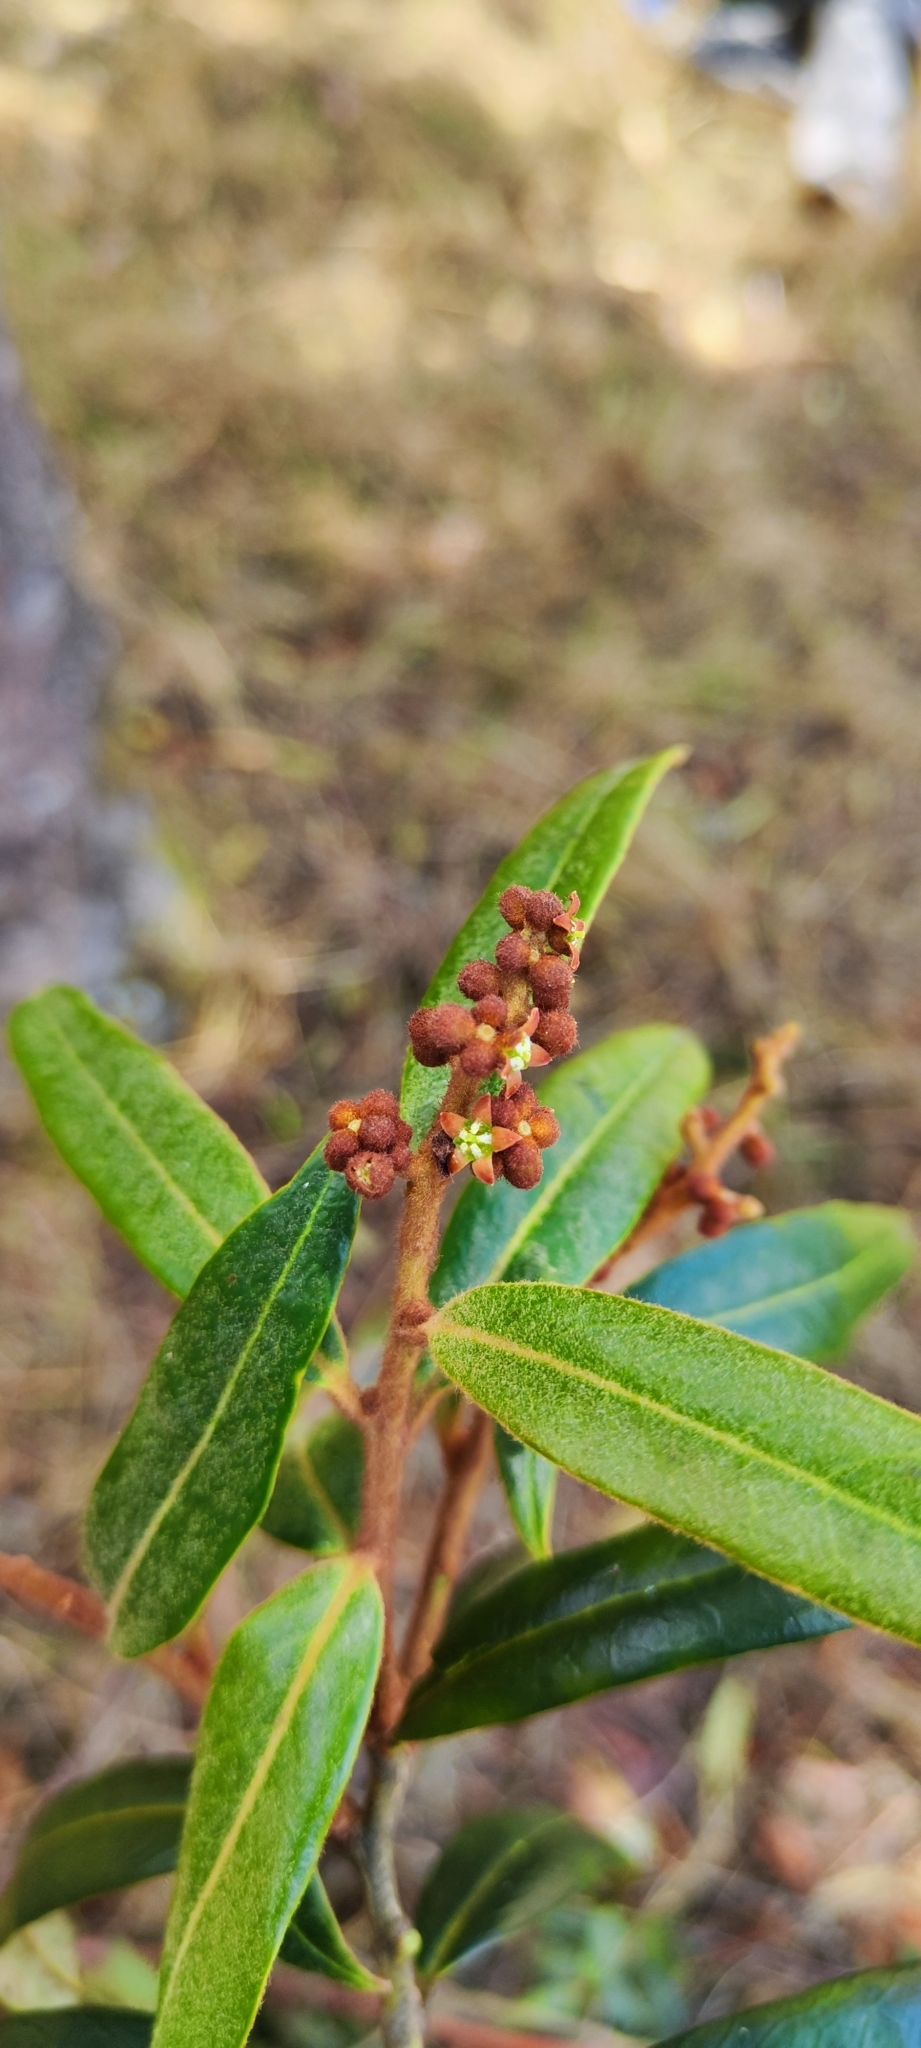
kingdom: Plantae
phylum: Tracheophyta
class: Magnoliopsida
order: Santalales
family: Cervantesiaceae
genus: Cervantesia
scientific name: Cervantesia tomentosa
